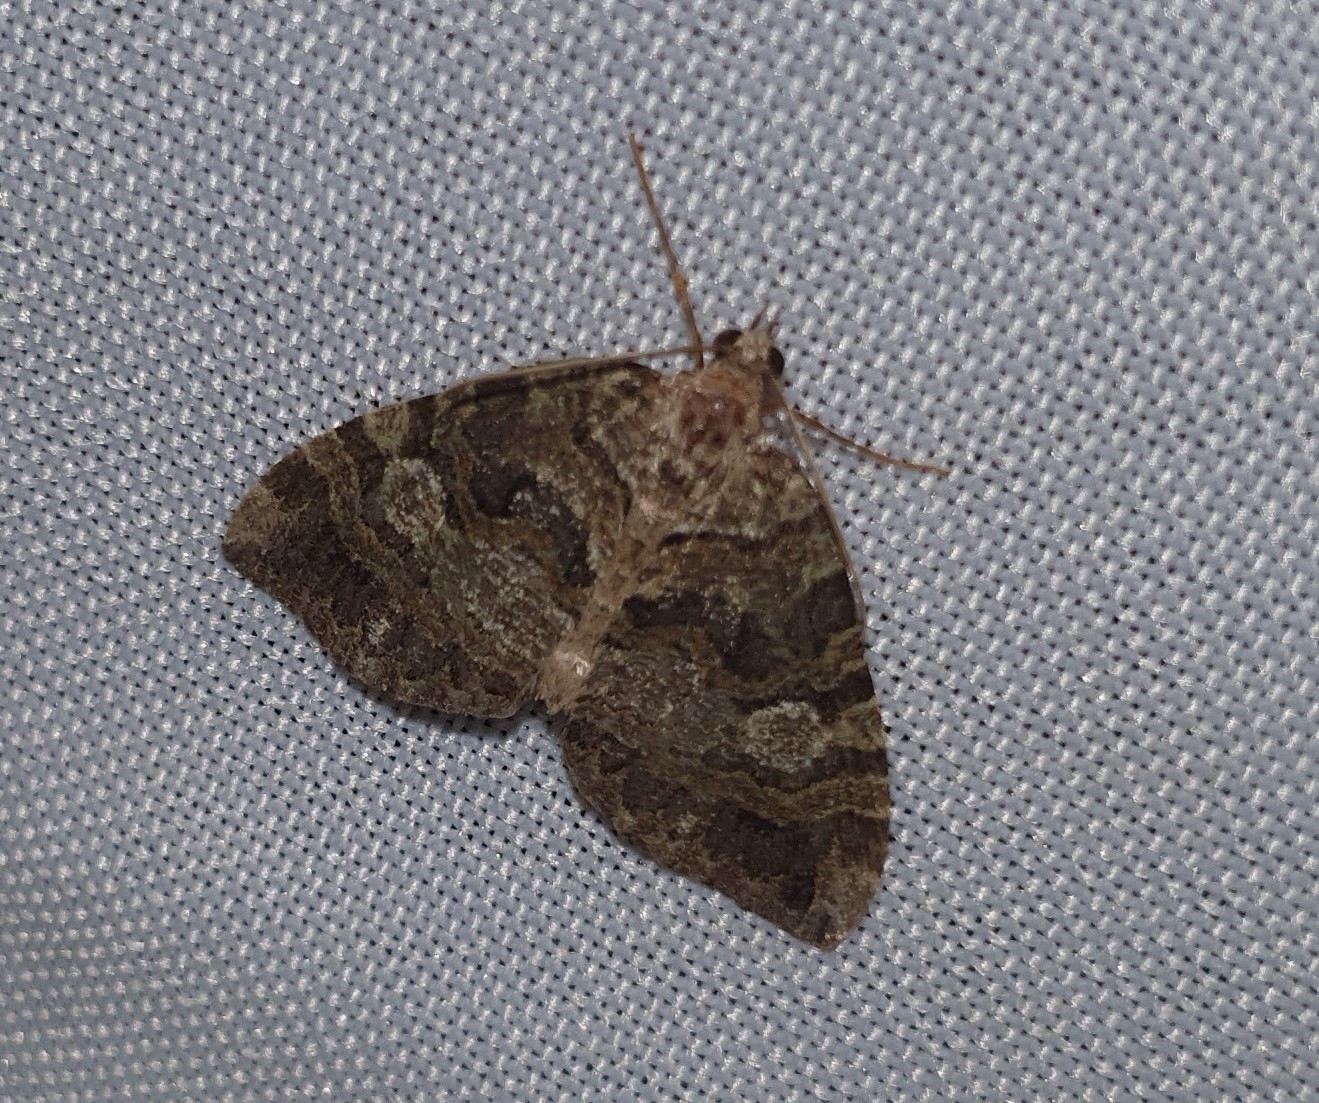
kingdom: Animalia
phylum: Arthropoda
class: Insecta
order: Lepidoptera
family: Geometridae
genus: Hydriomena
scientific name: Hydriomena furcata
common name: July highflyer
